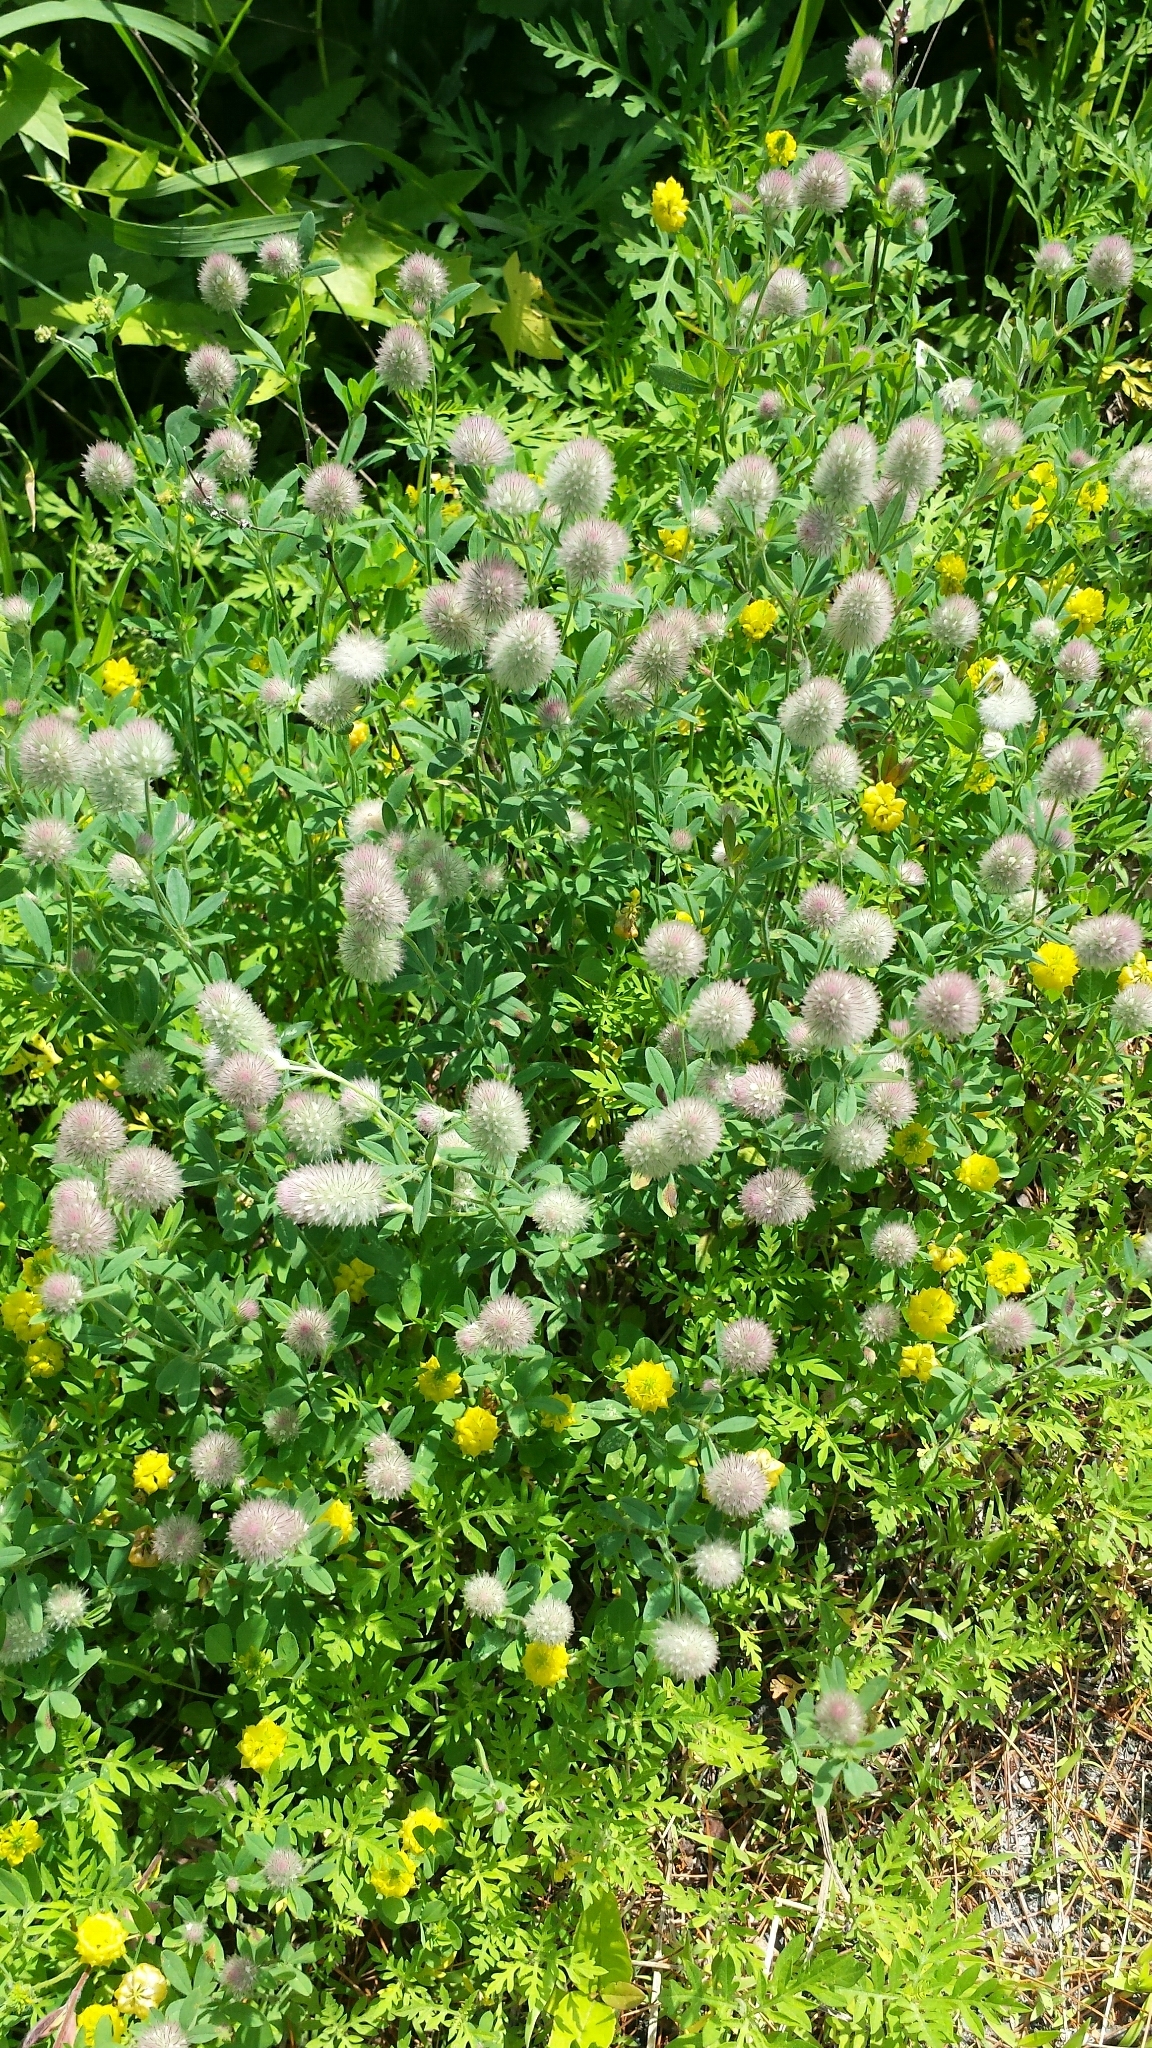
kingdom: Plantae
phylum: Tracheophyta
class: Magnoliopsida
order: Fabales
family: Fabaceae
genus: Trifolium
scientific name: Trifolium arvense
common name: Hare's-foot clover
